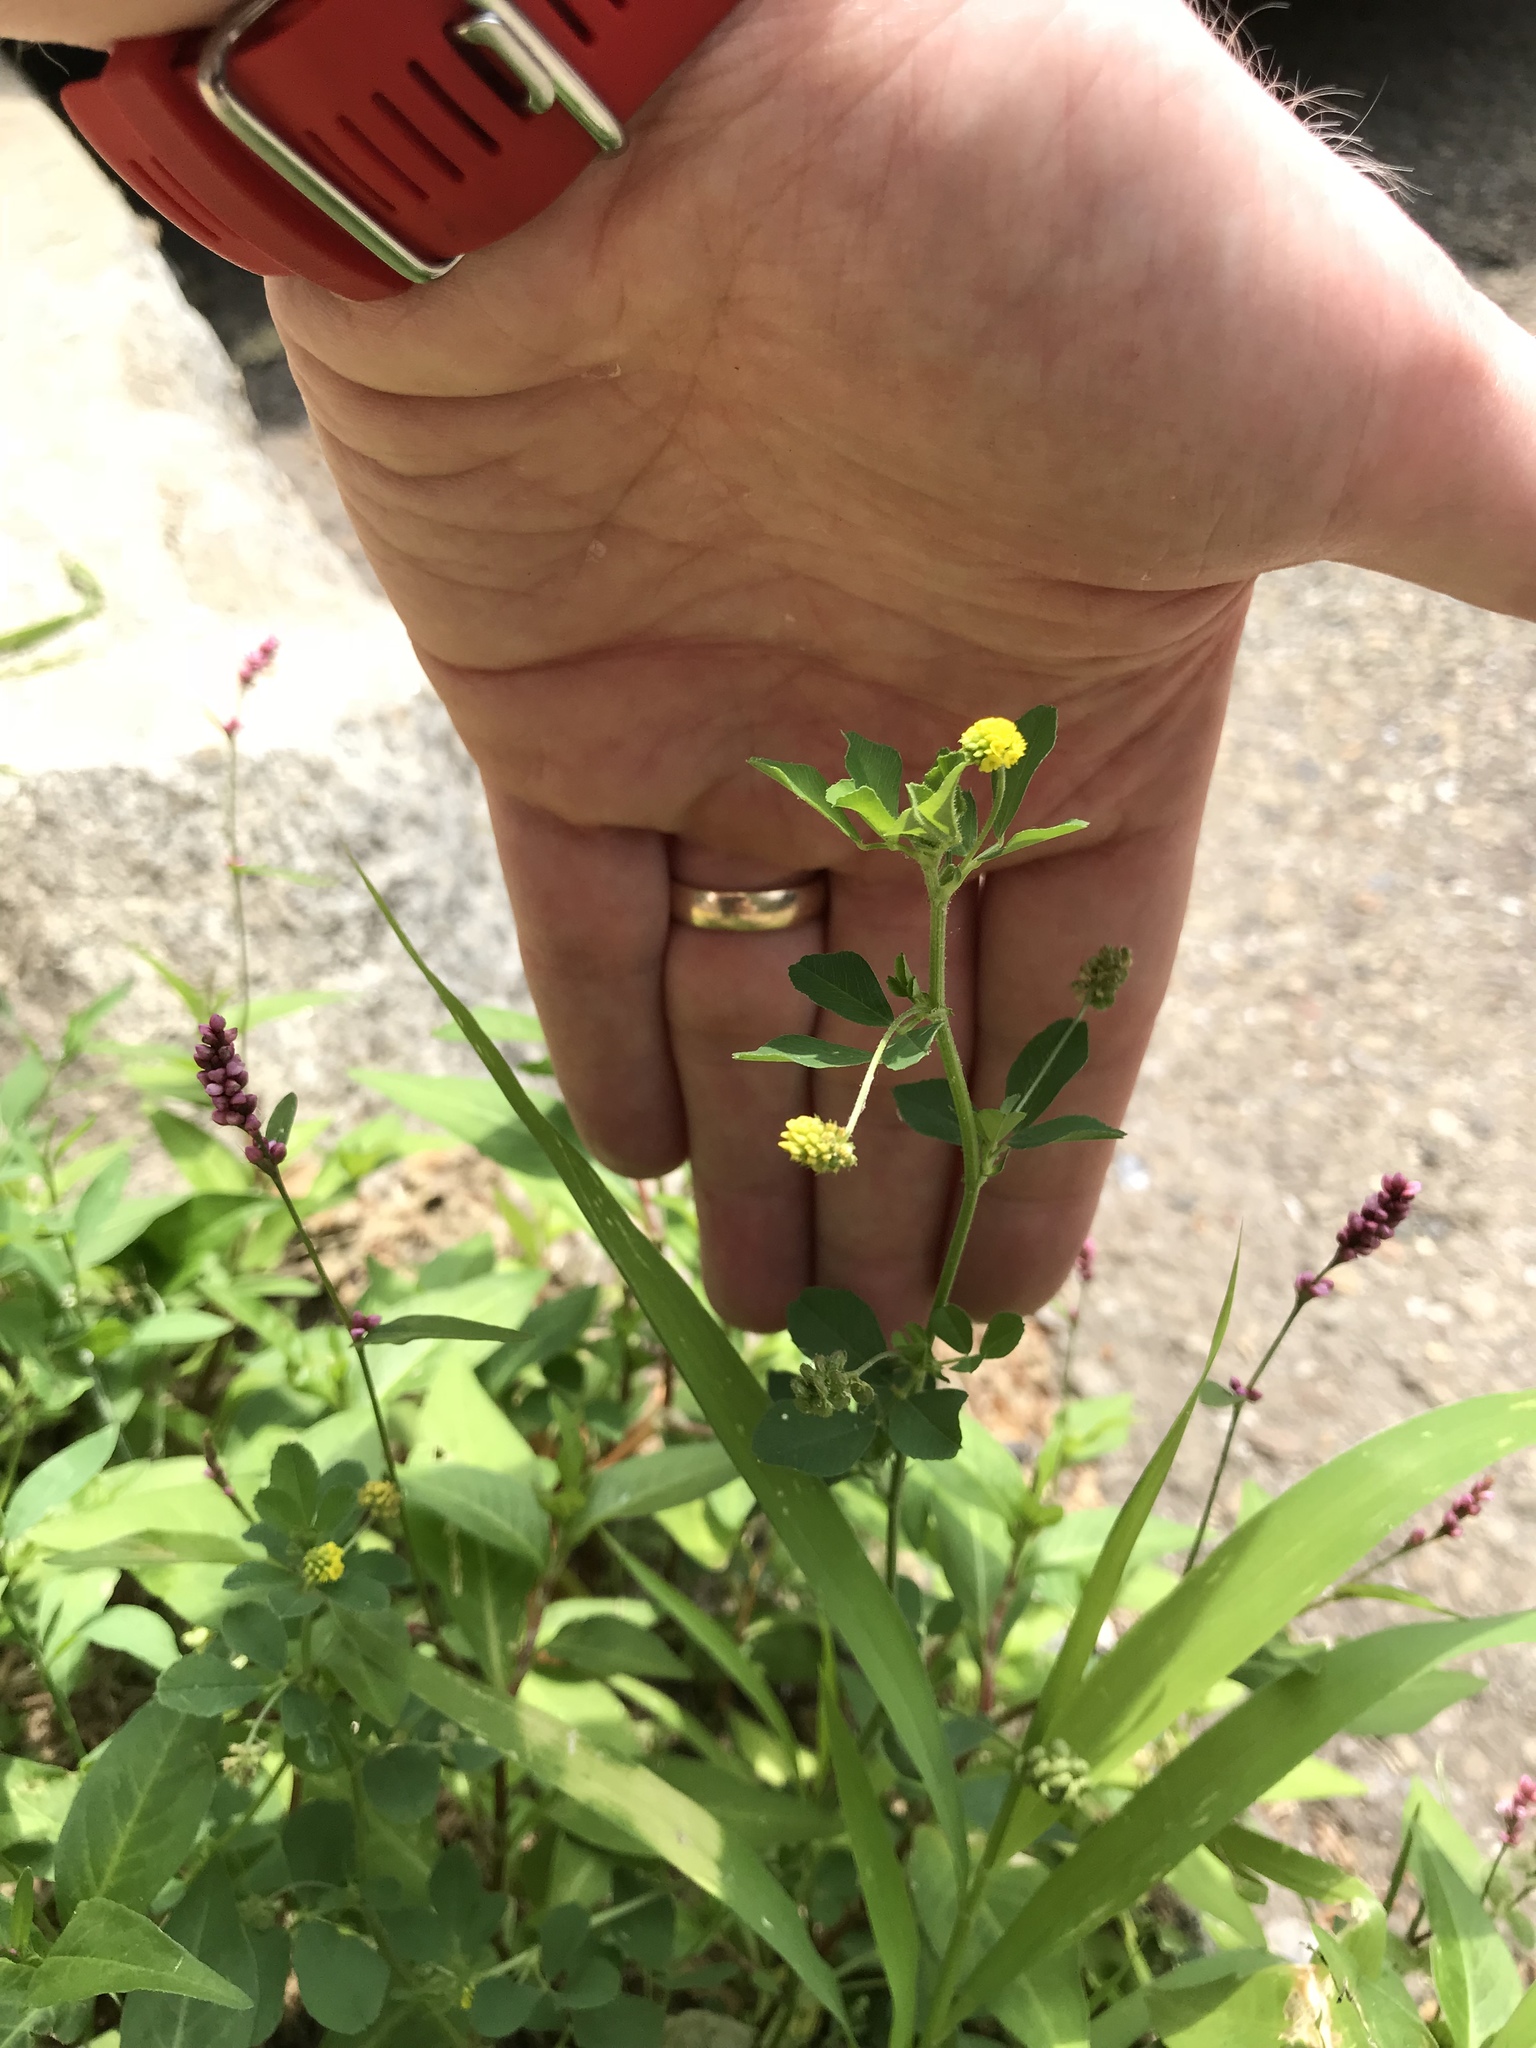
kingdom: Plantae
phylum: Tracheophyta
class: Magnoliopsida
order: Fabales
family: Fabaceae
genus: Medicago
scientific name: Medicago lupulina
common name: Black medick
